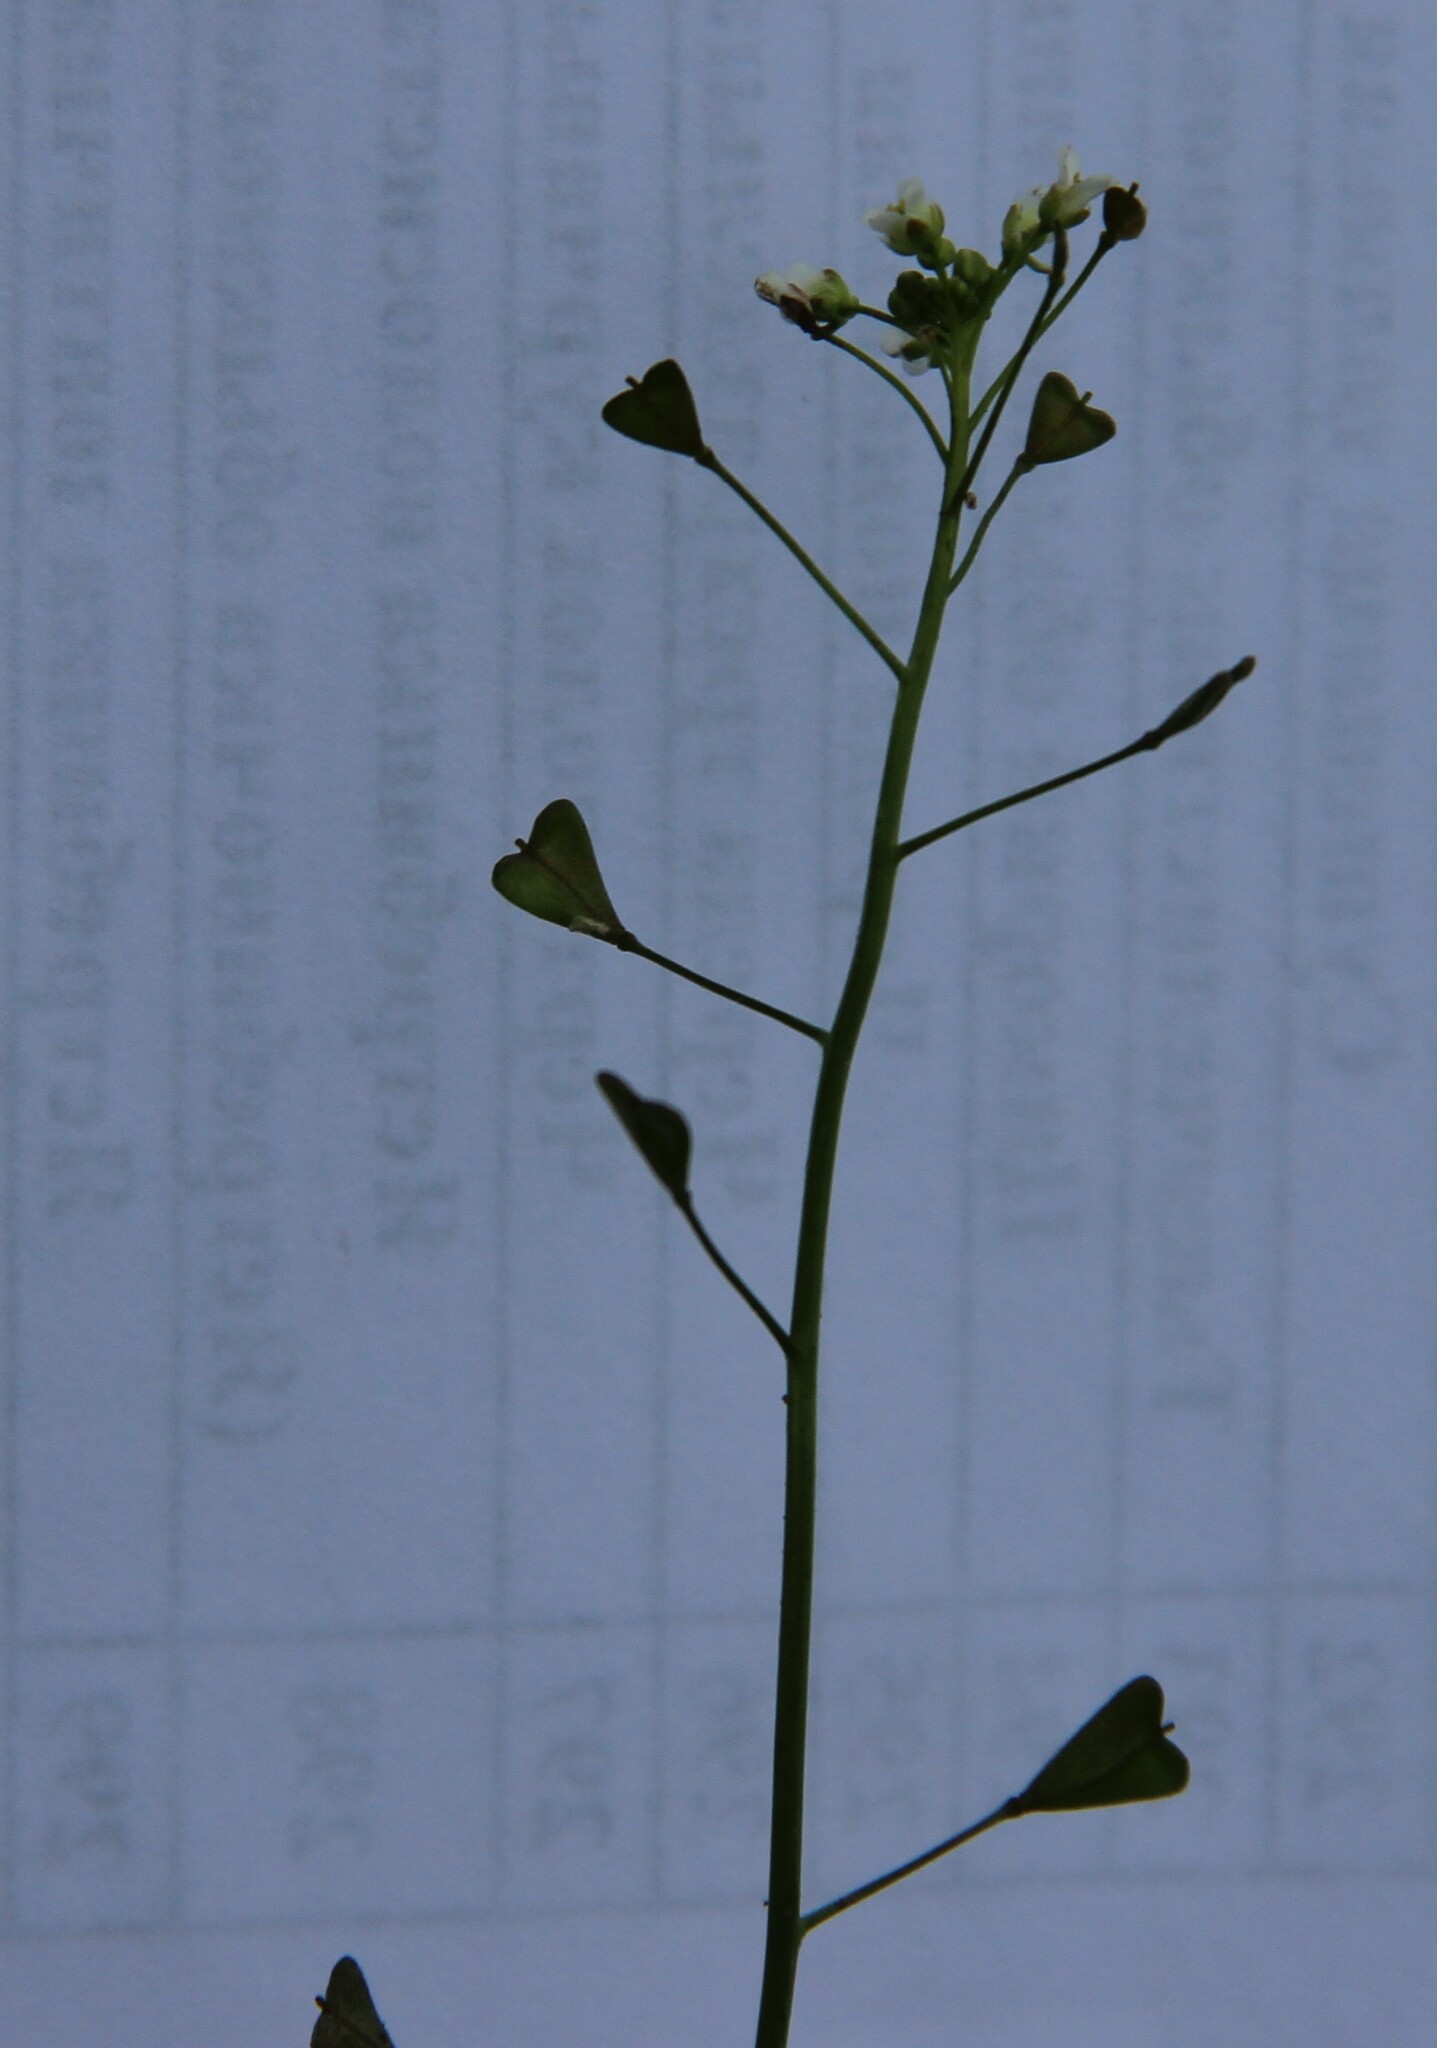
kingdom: Plantae
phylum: Tracheophyta
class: Magnoliopsida
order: Brassicales
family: Brassicaceae
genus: Capsella
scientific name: Capsella bursa-pastoris
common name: Shepherd's purse
